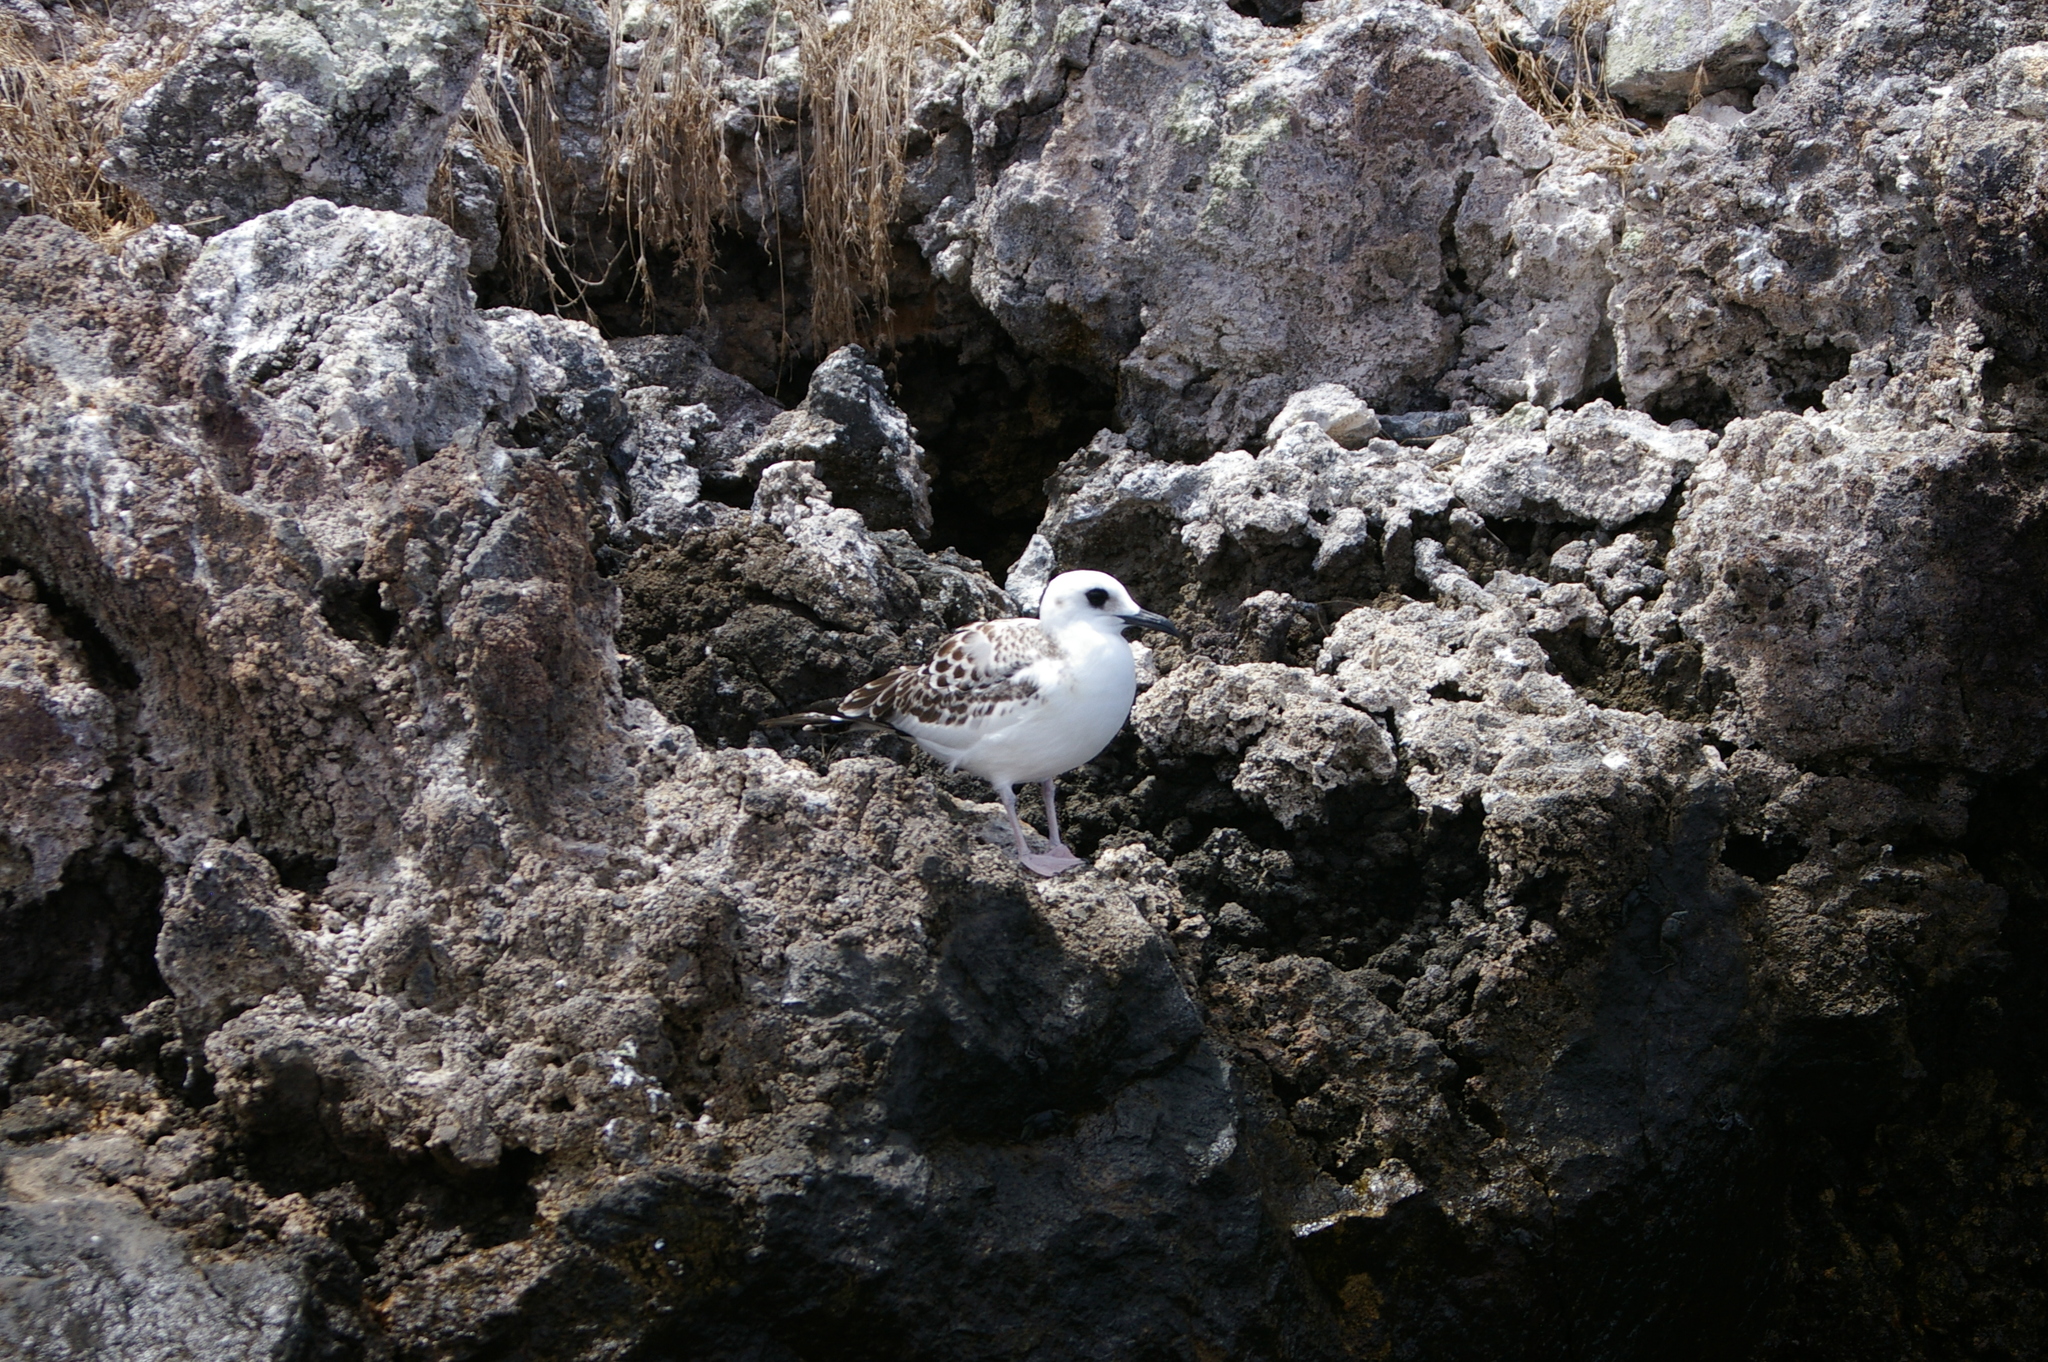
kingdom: Animalia
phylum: Chordata
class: Aves
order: Charadriiformes
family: Laridae
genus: Creagrus
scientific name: Creagrus furcatus
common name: Swallow-tailed gull
